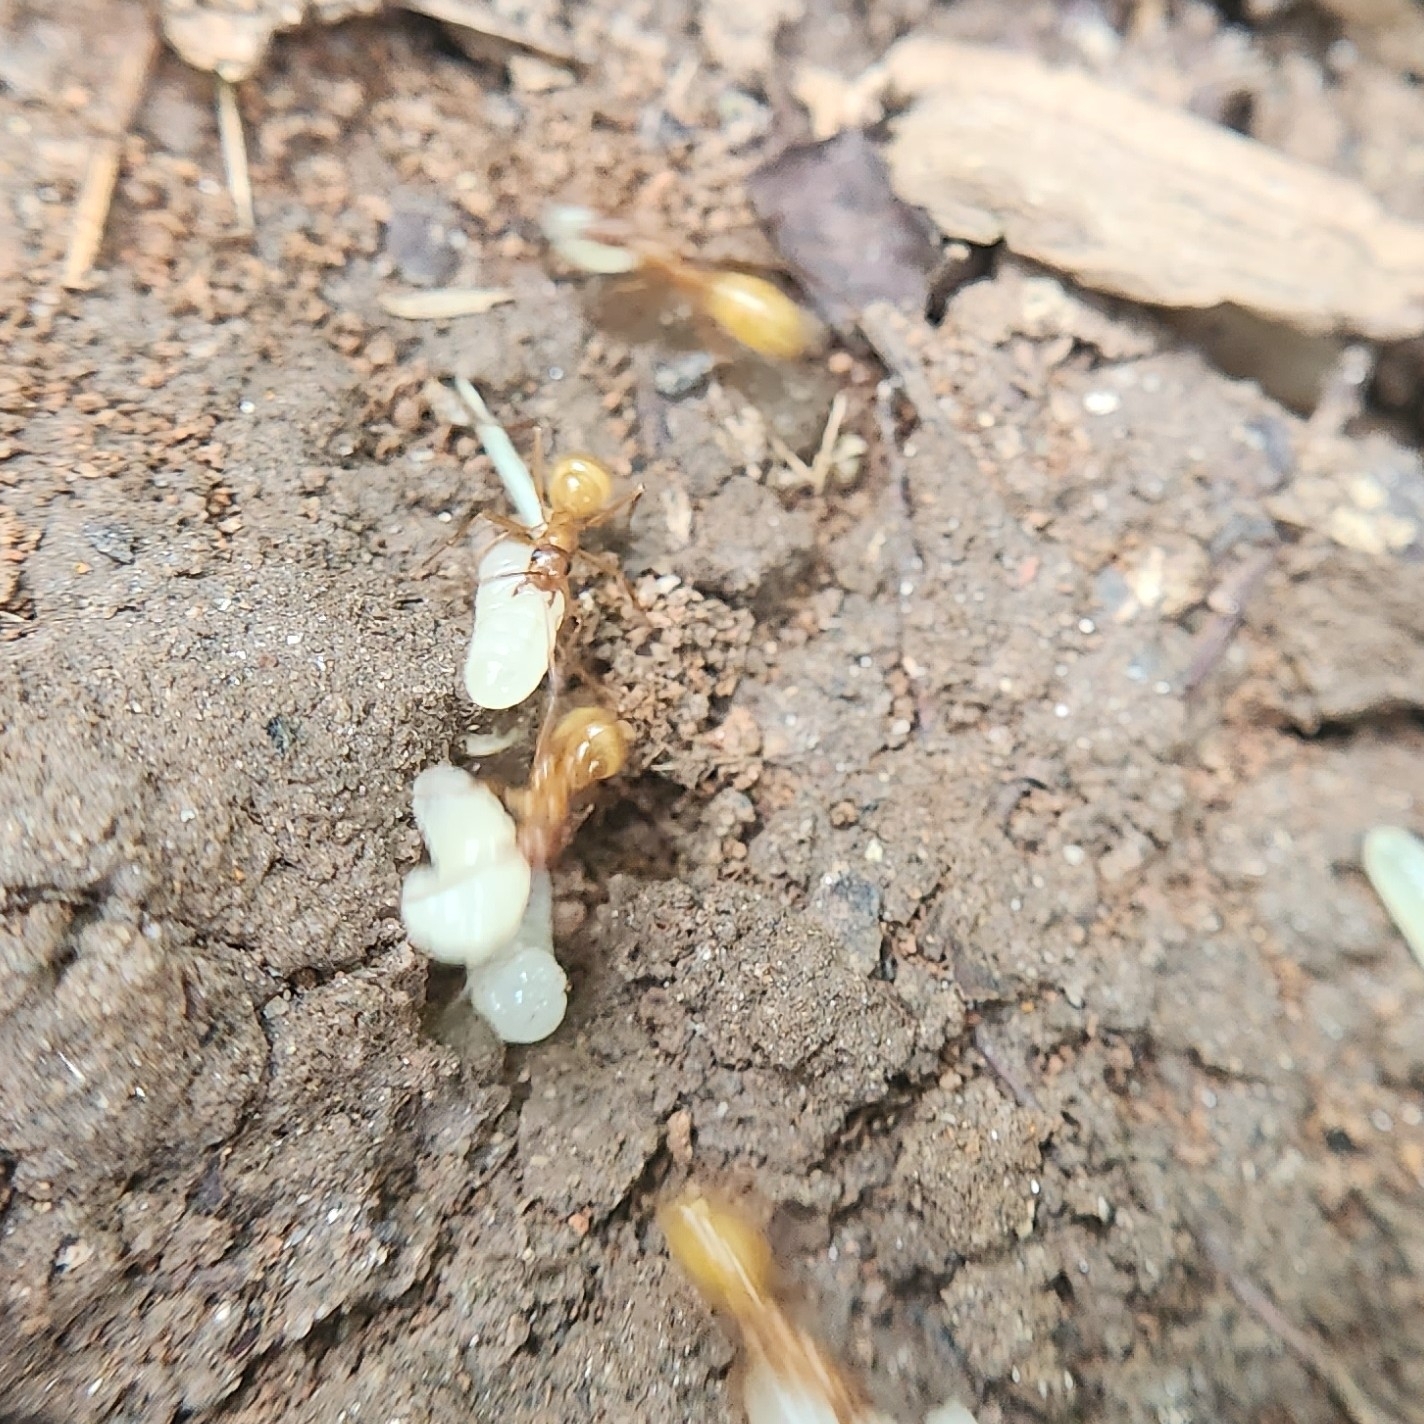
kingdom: Animalia
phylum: Arthropoda
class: Insecta
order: Hymenoptera
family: Formicidae
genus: Formica
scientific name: Formica
